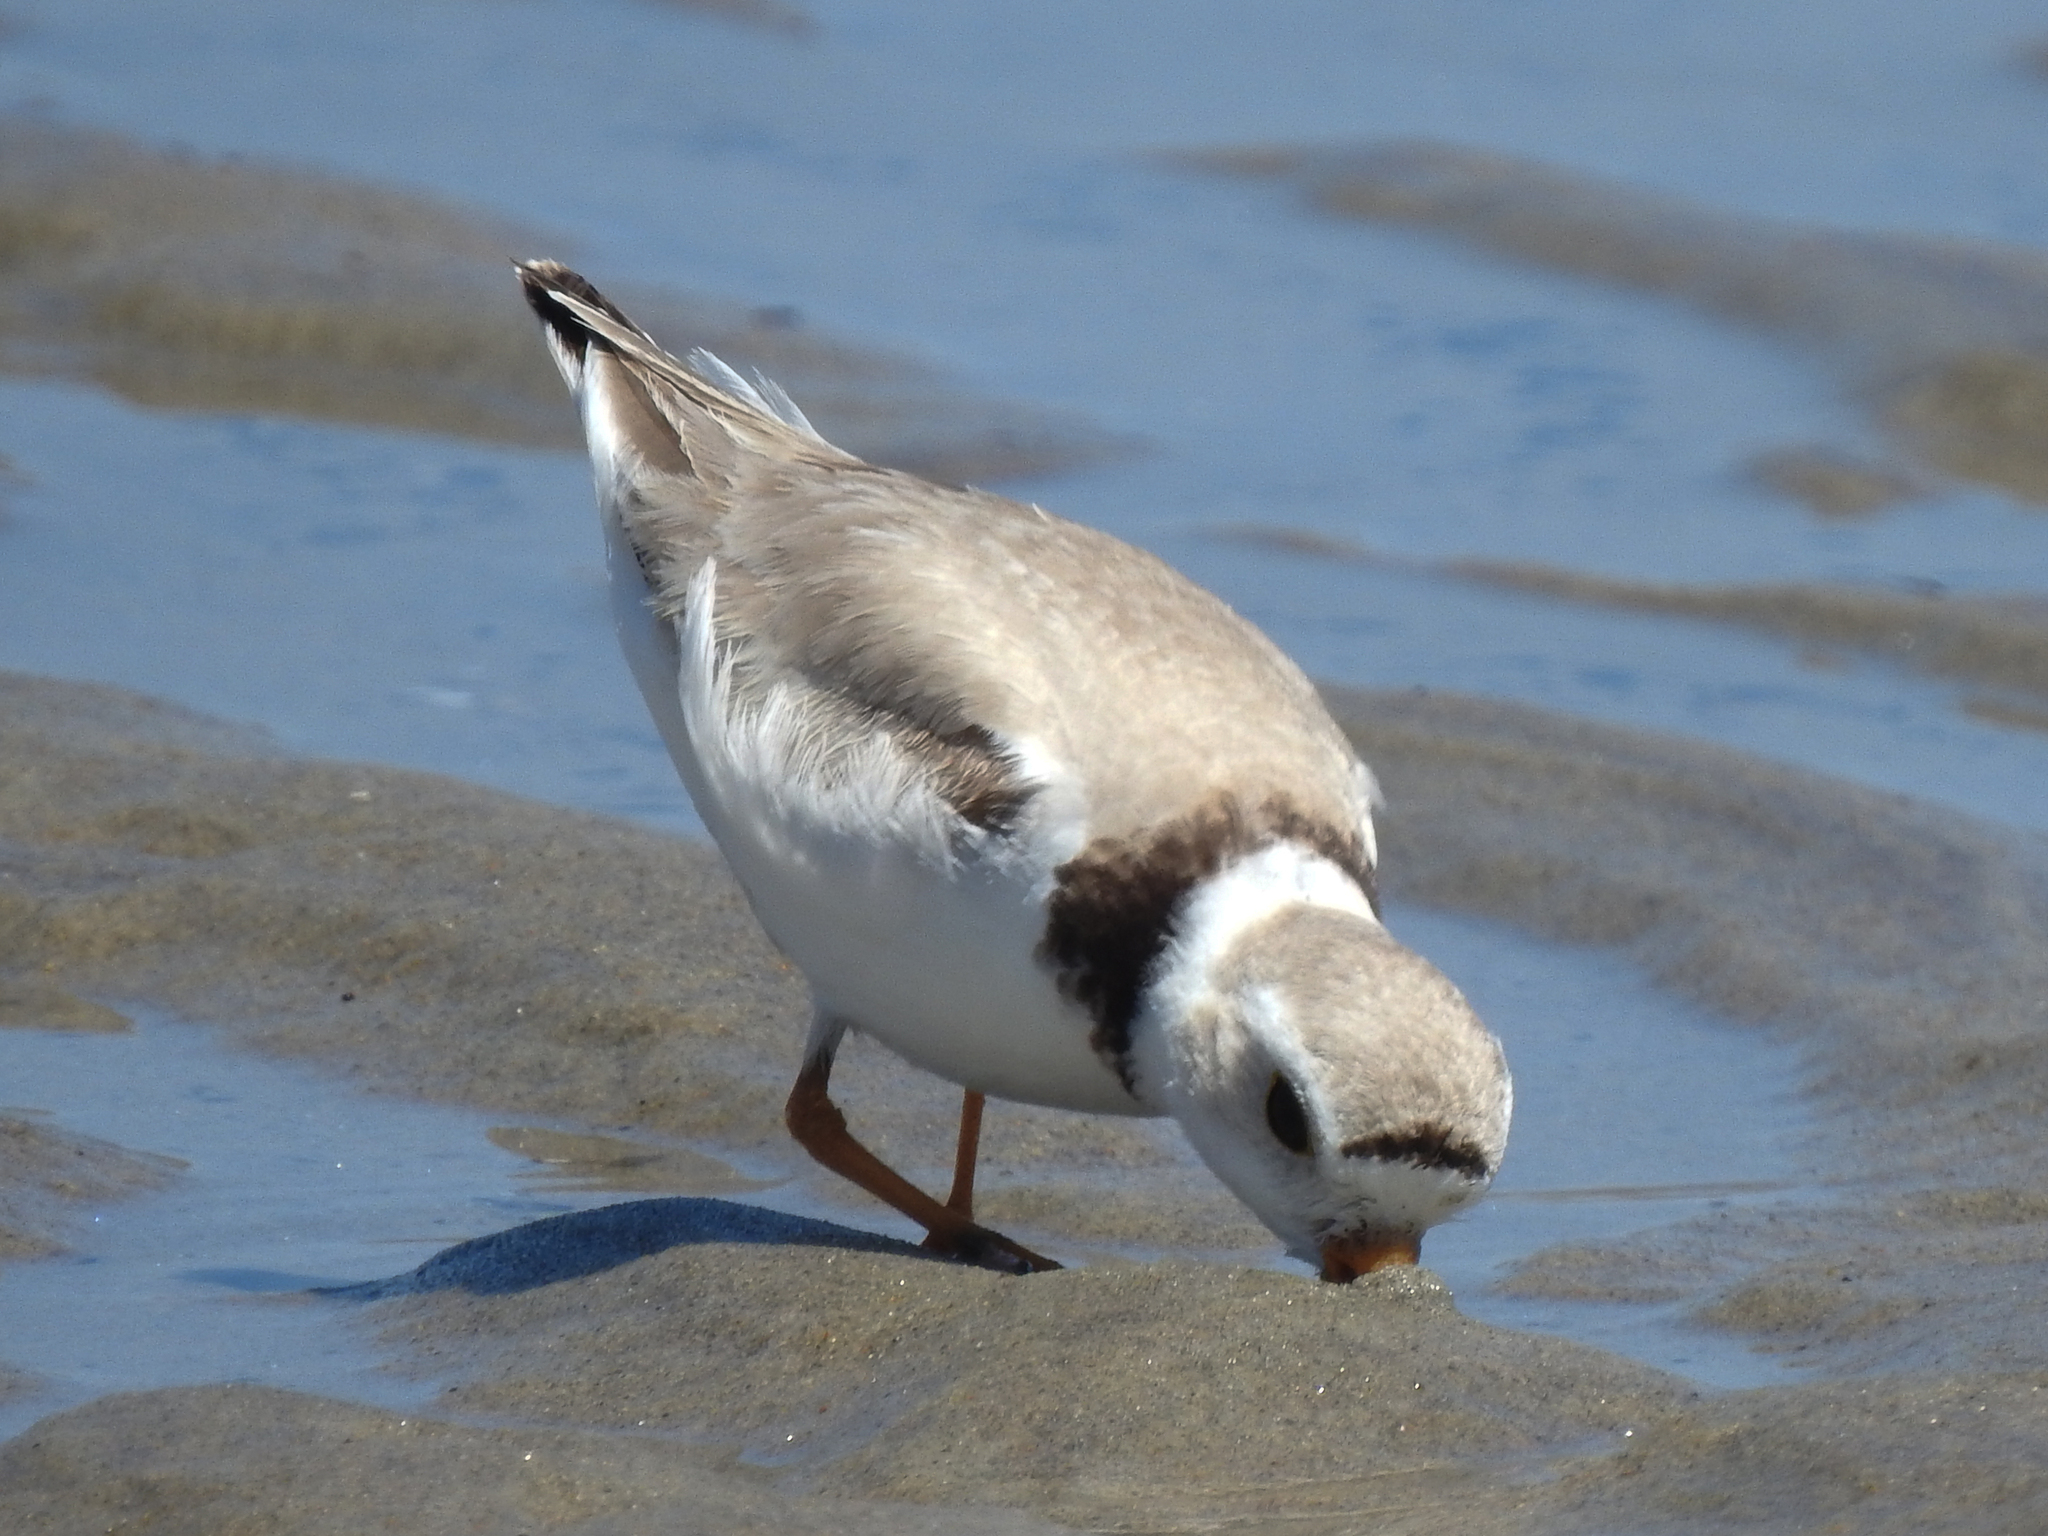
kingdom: Animalia
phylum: Chordata
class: Aves
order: Charadriiformes
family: Charadriidae
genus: Charadrius
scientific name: Charadrius melodus
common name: Piping plover
